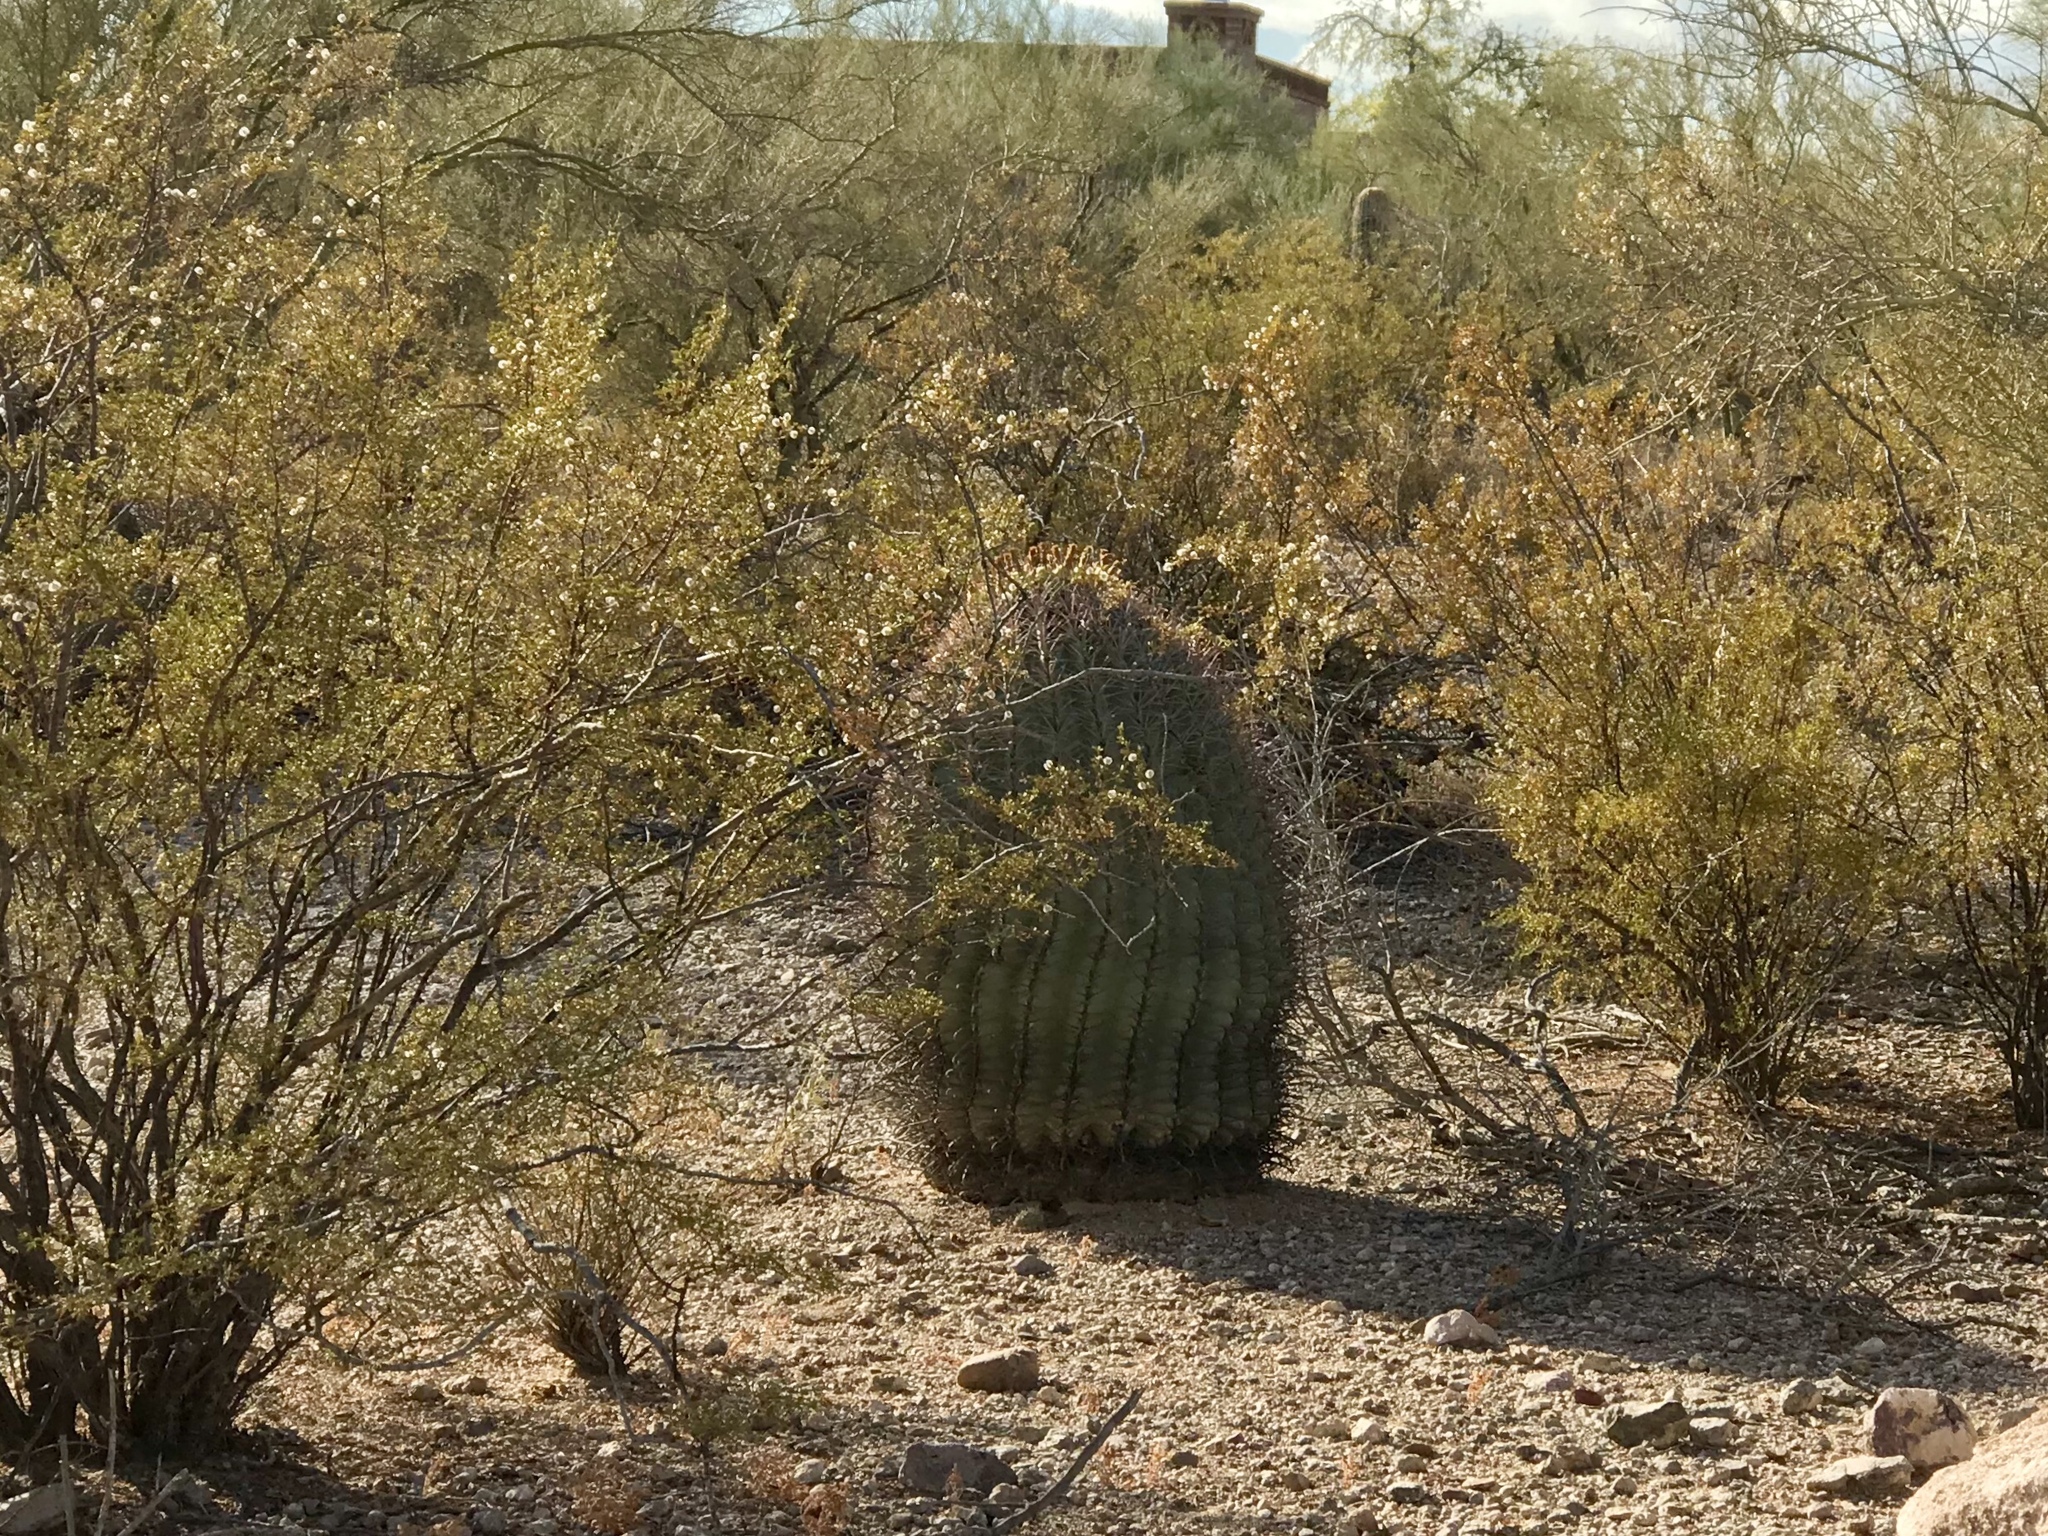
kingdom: Plantae
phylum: Tracheophyta
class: Magnoliopsida
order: Caryophyllales
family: Cactaceae
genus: Ferocactus
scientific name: Ferocactus wislizeni
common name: Candy barrel cactus
